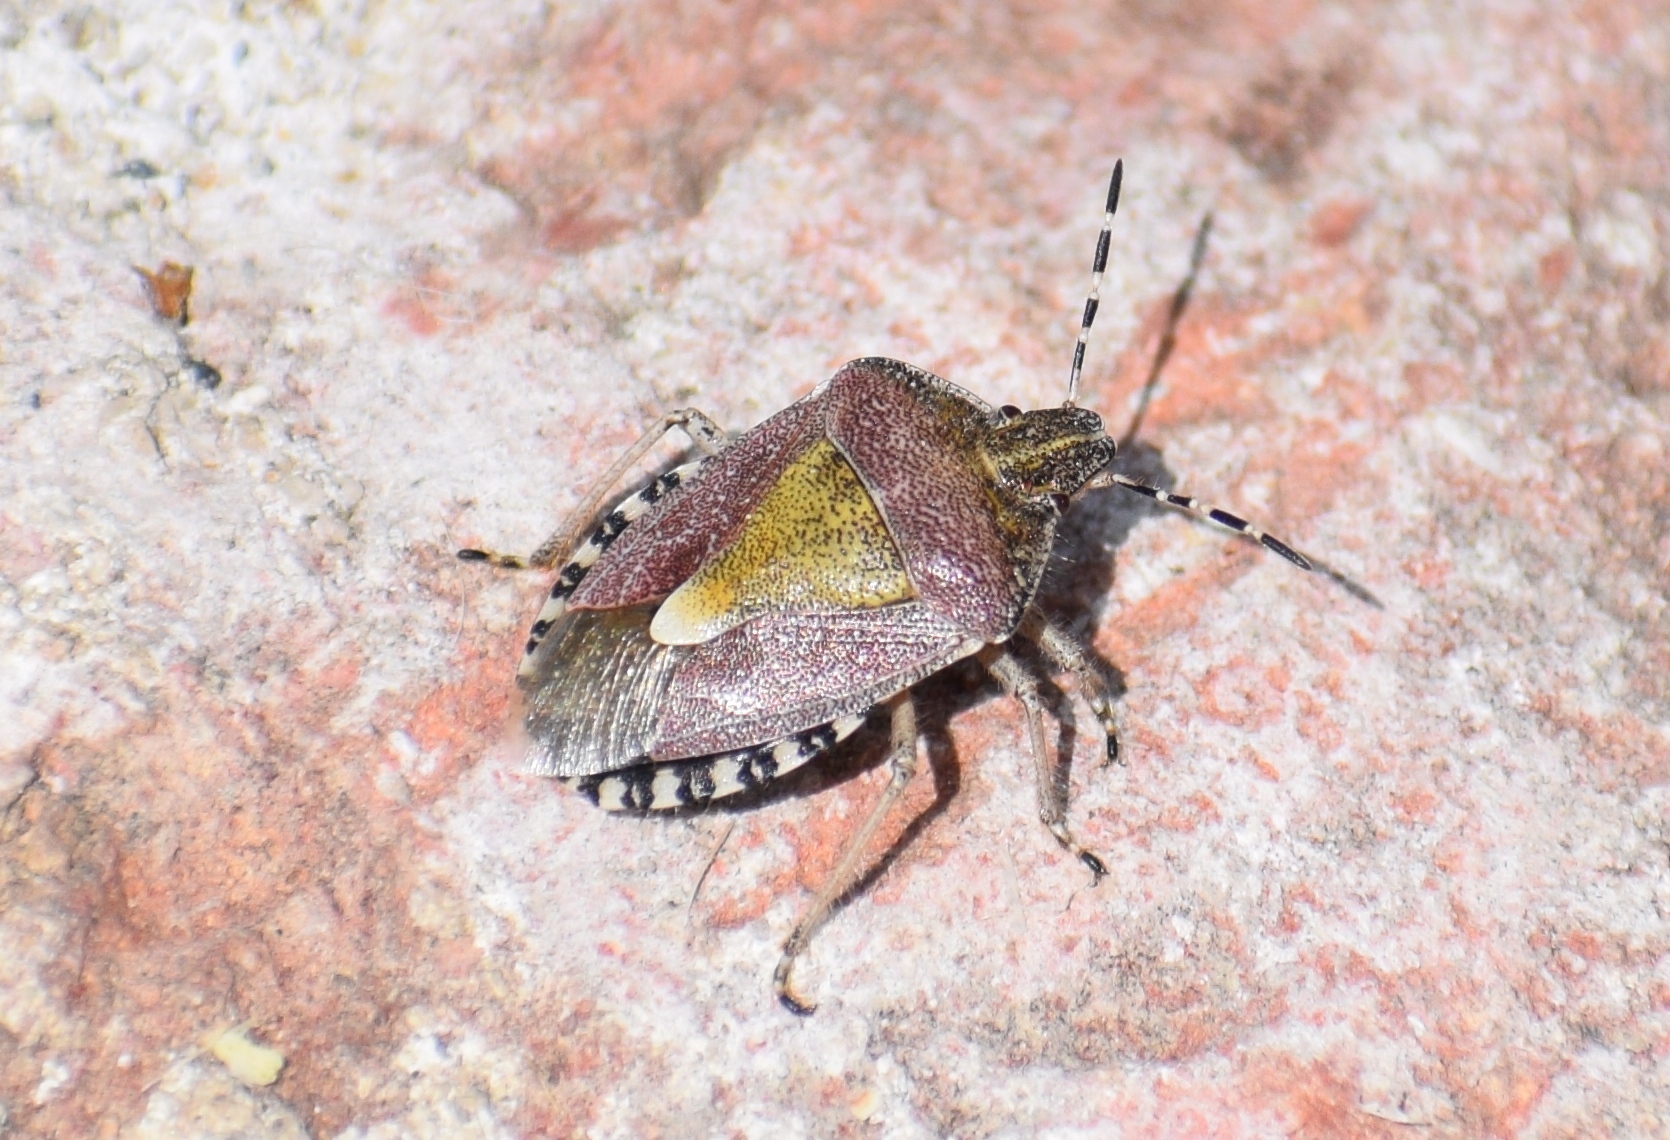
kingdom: Animalia
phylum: Arthropoda
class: Insecta
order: Hemiptera
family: Pentatomidae
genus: Dolycoris
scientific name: Dolycoris baccarum
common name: Sloe bug
